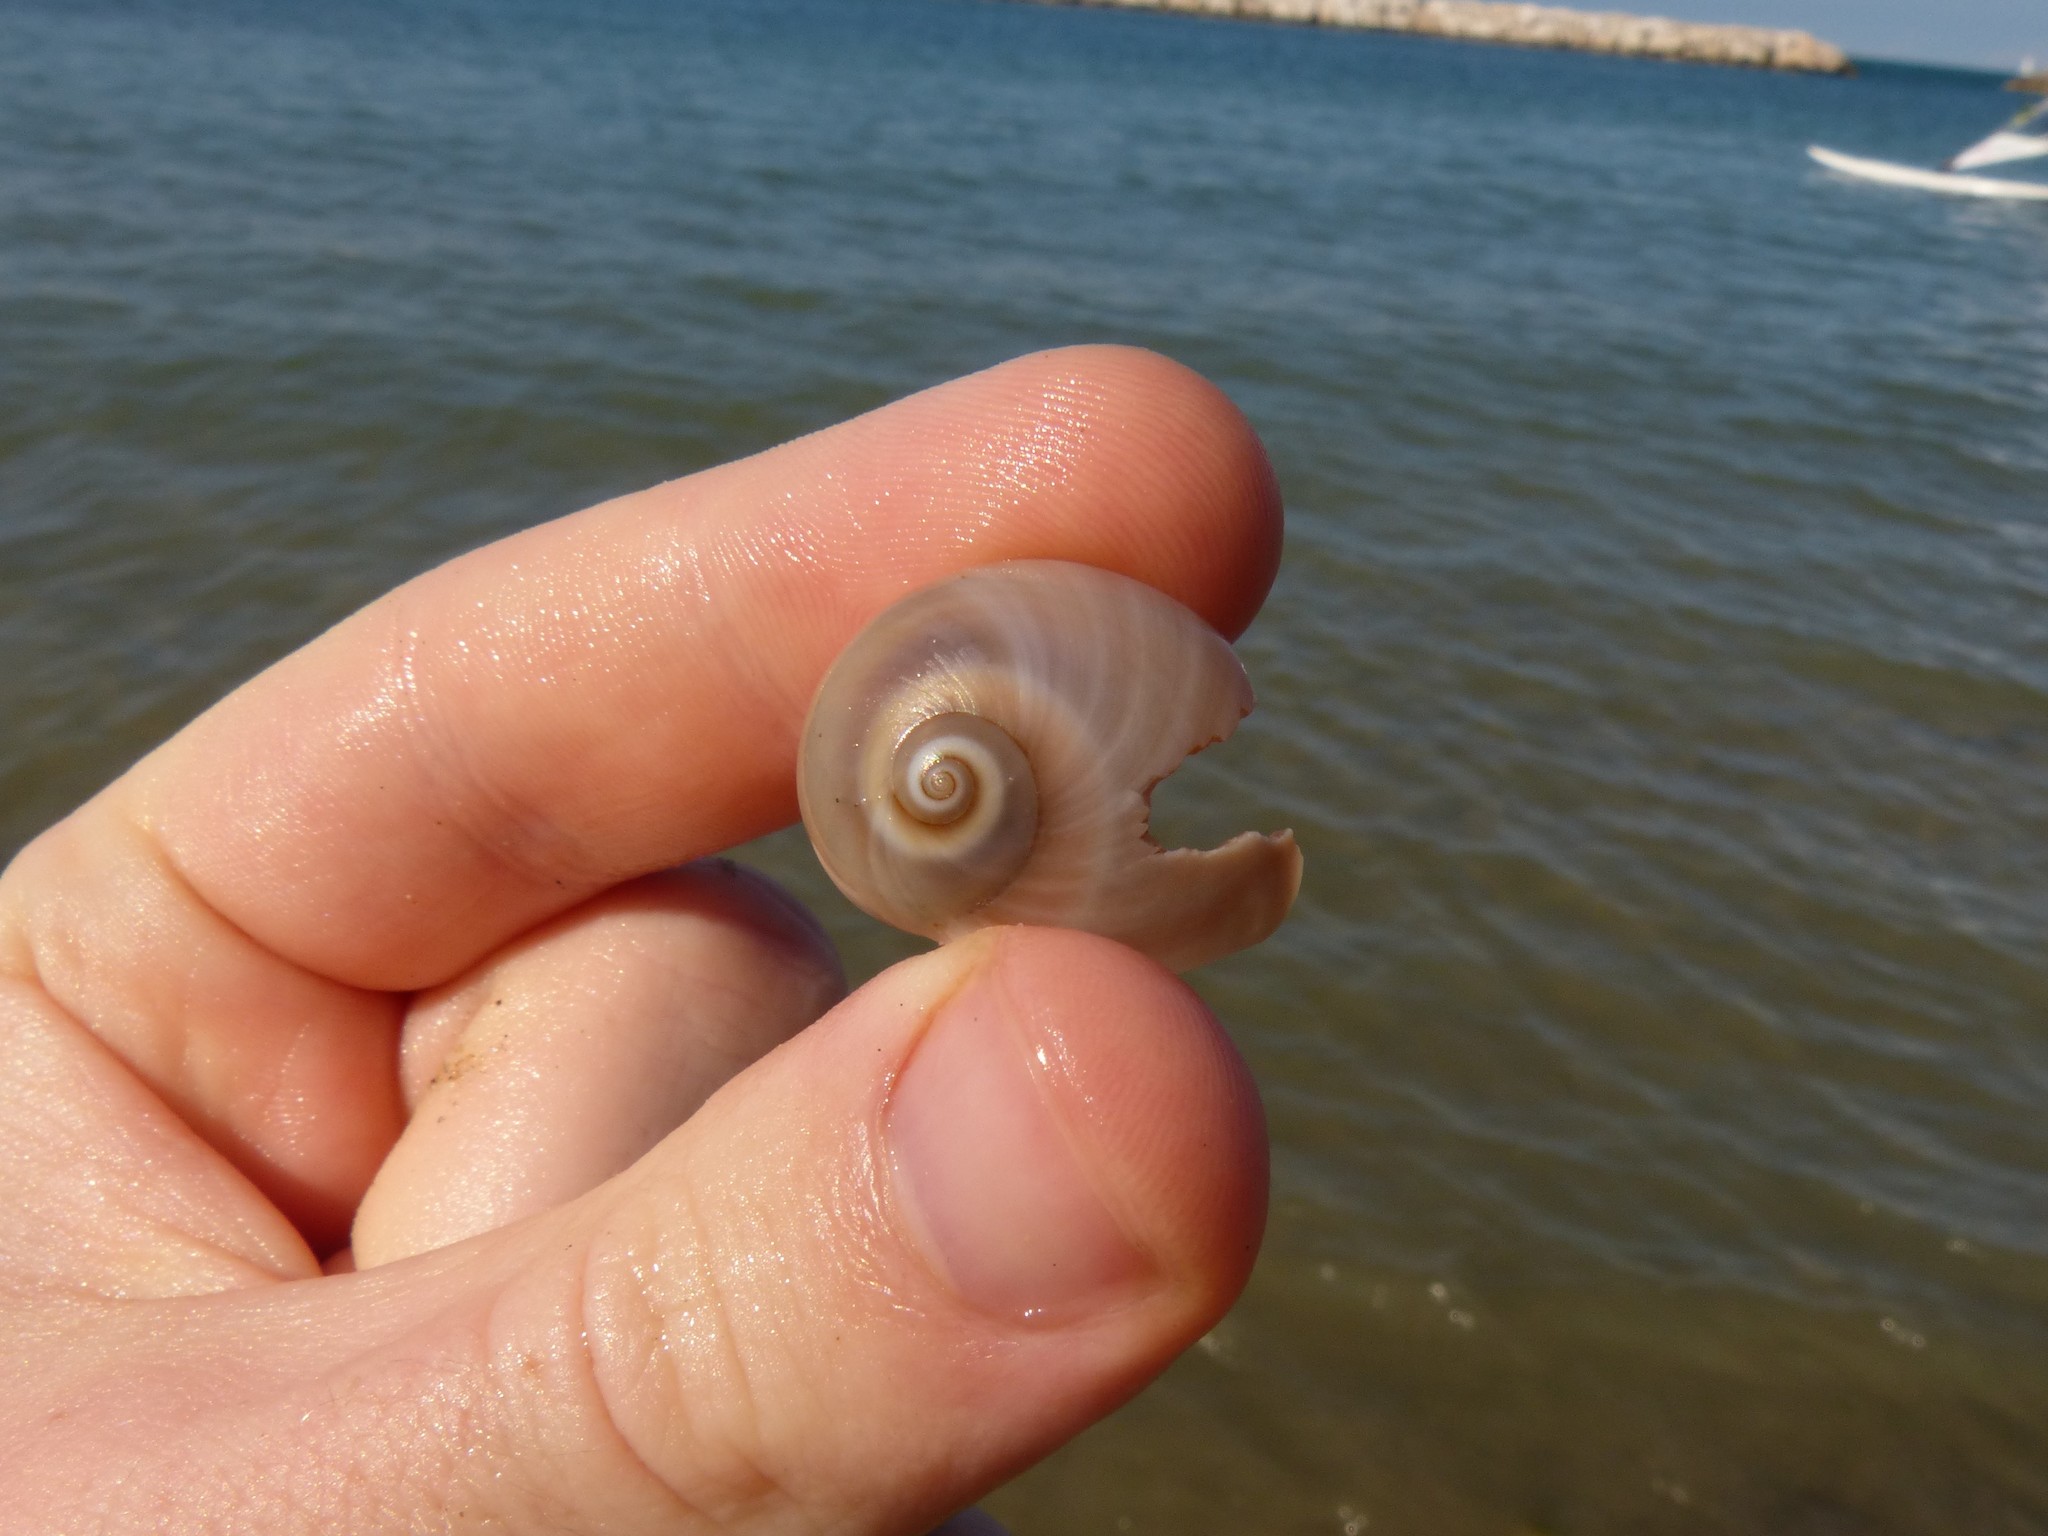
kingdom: Animalia
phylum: Mollusca
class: Gastropoda
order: Littorinimorpha
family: Naticidae
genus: Neverita
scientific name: Neverita josephinia
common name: Josephine's moonsnail
